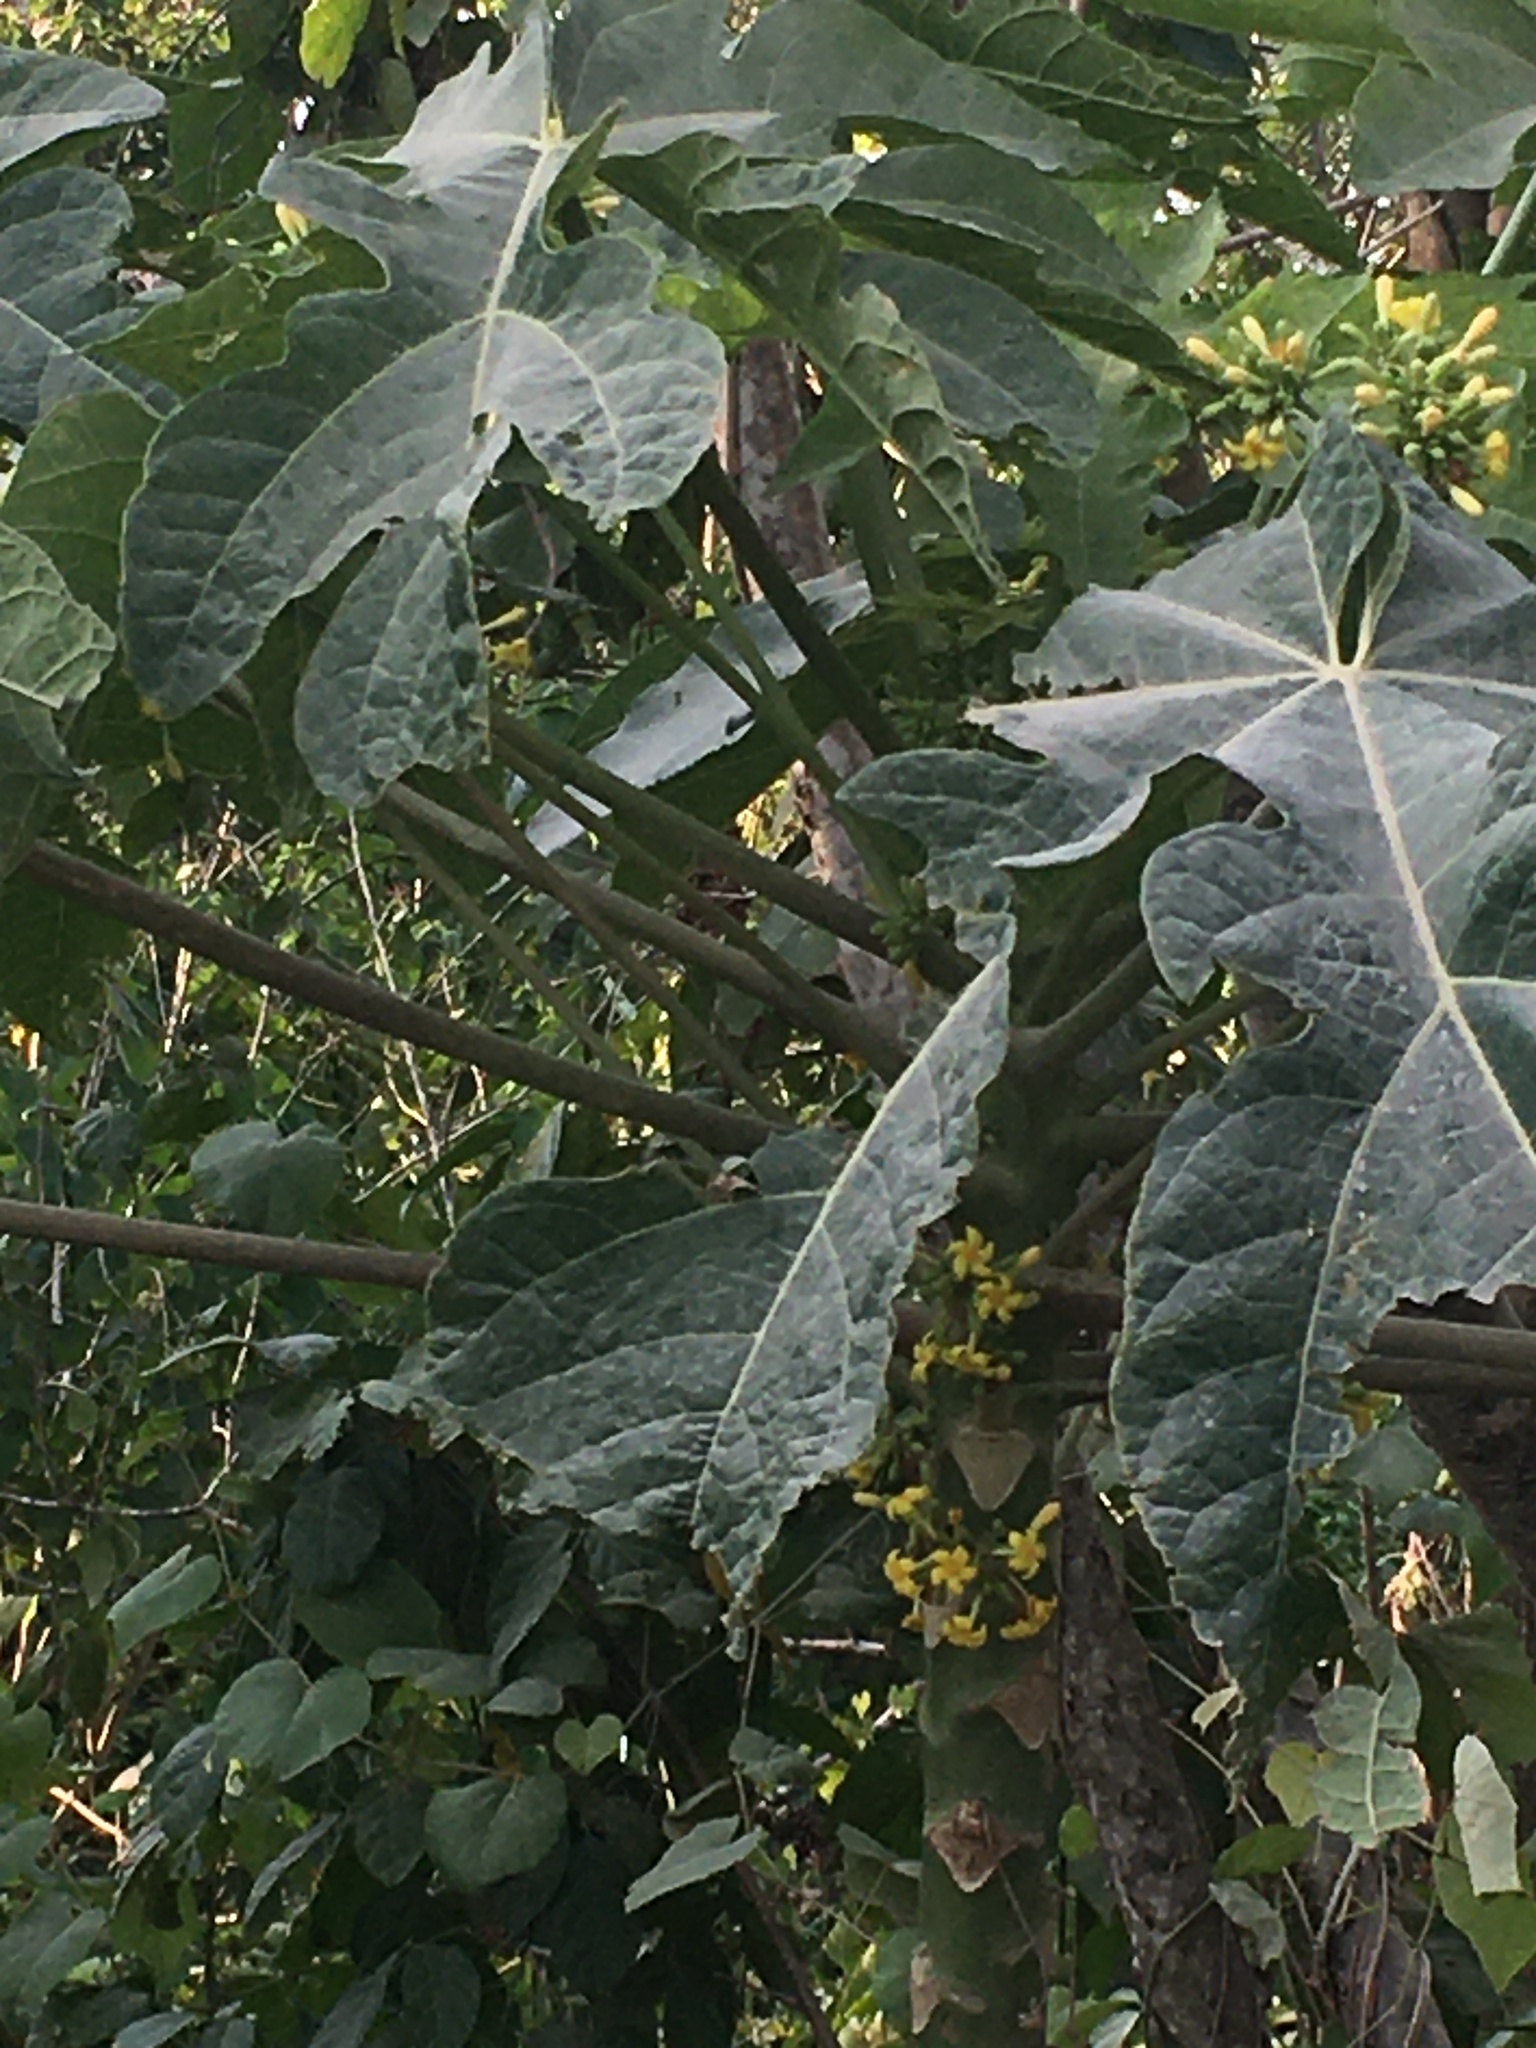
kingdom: Plantae
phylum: Tracheophyta
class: Magnoliopsida
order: Brassicales
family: Caricaceae
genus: Carica
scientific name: Carica papaya
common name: Papaya
